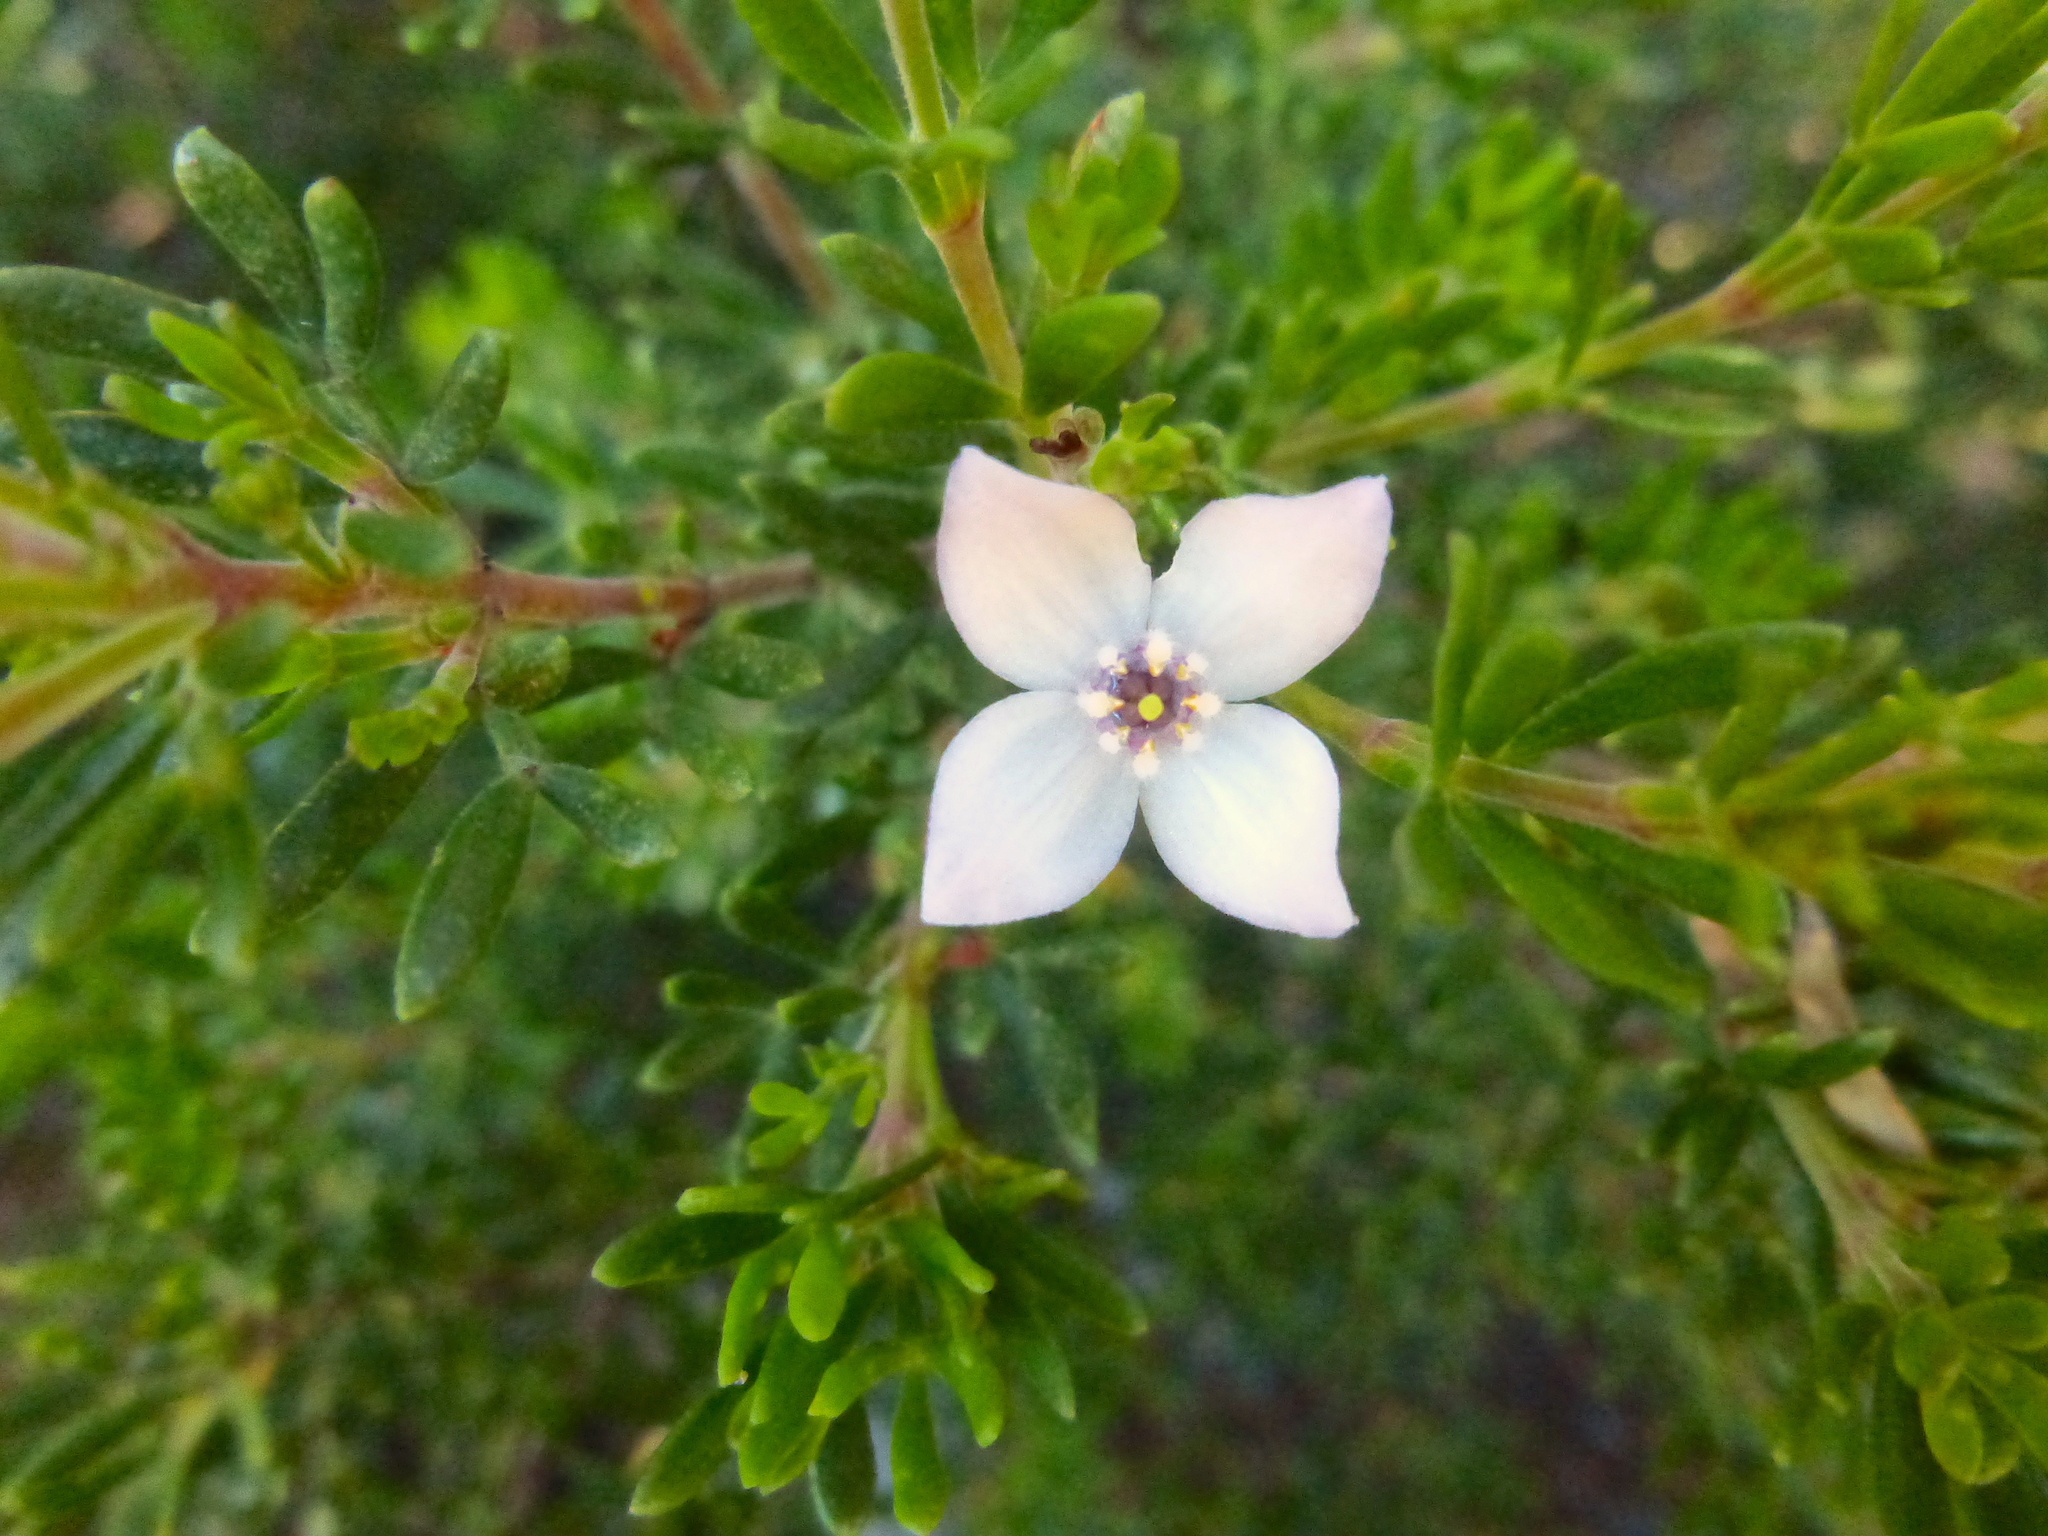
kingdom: Plantae
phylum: Tracheophyta
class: Magnoliopsida
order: Sapindales
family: Rutaceae
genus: Boronia
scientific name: Boronia citriodora
